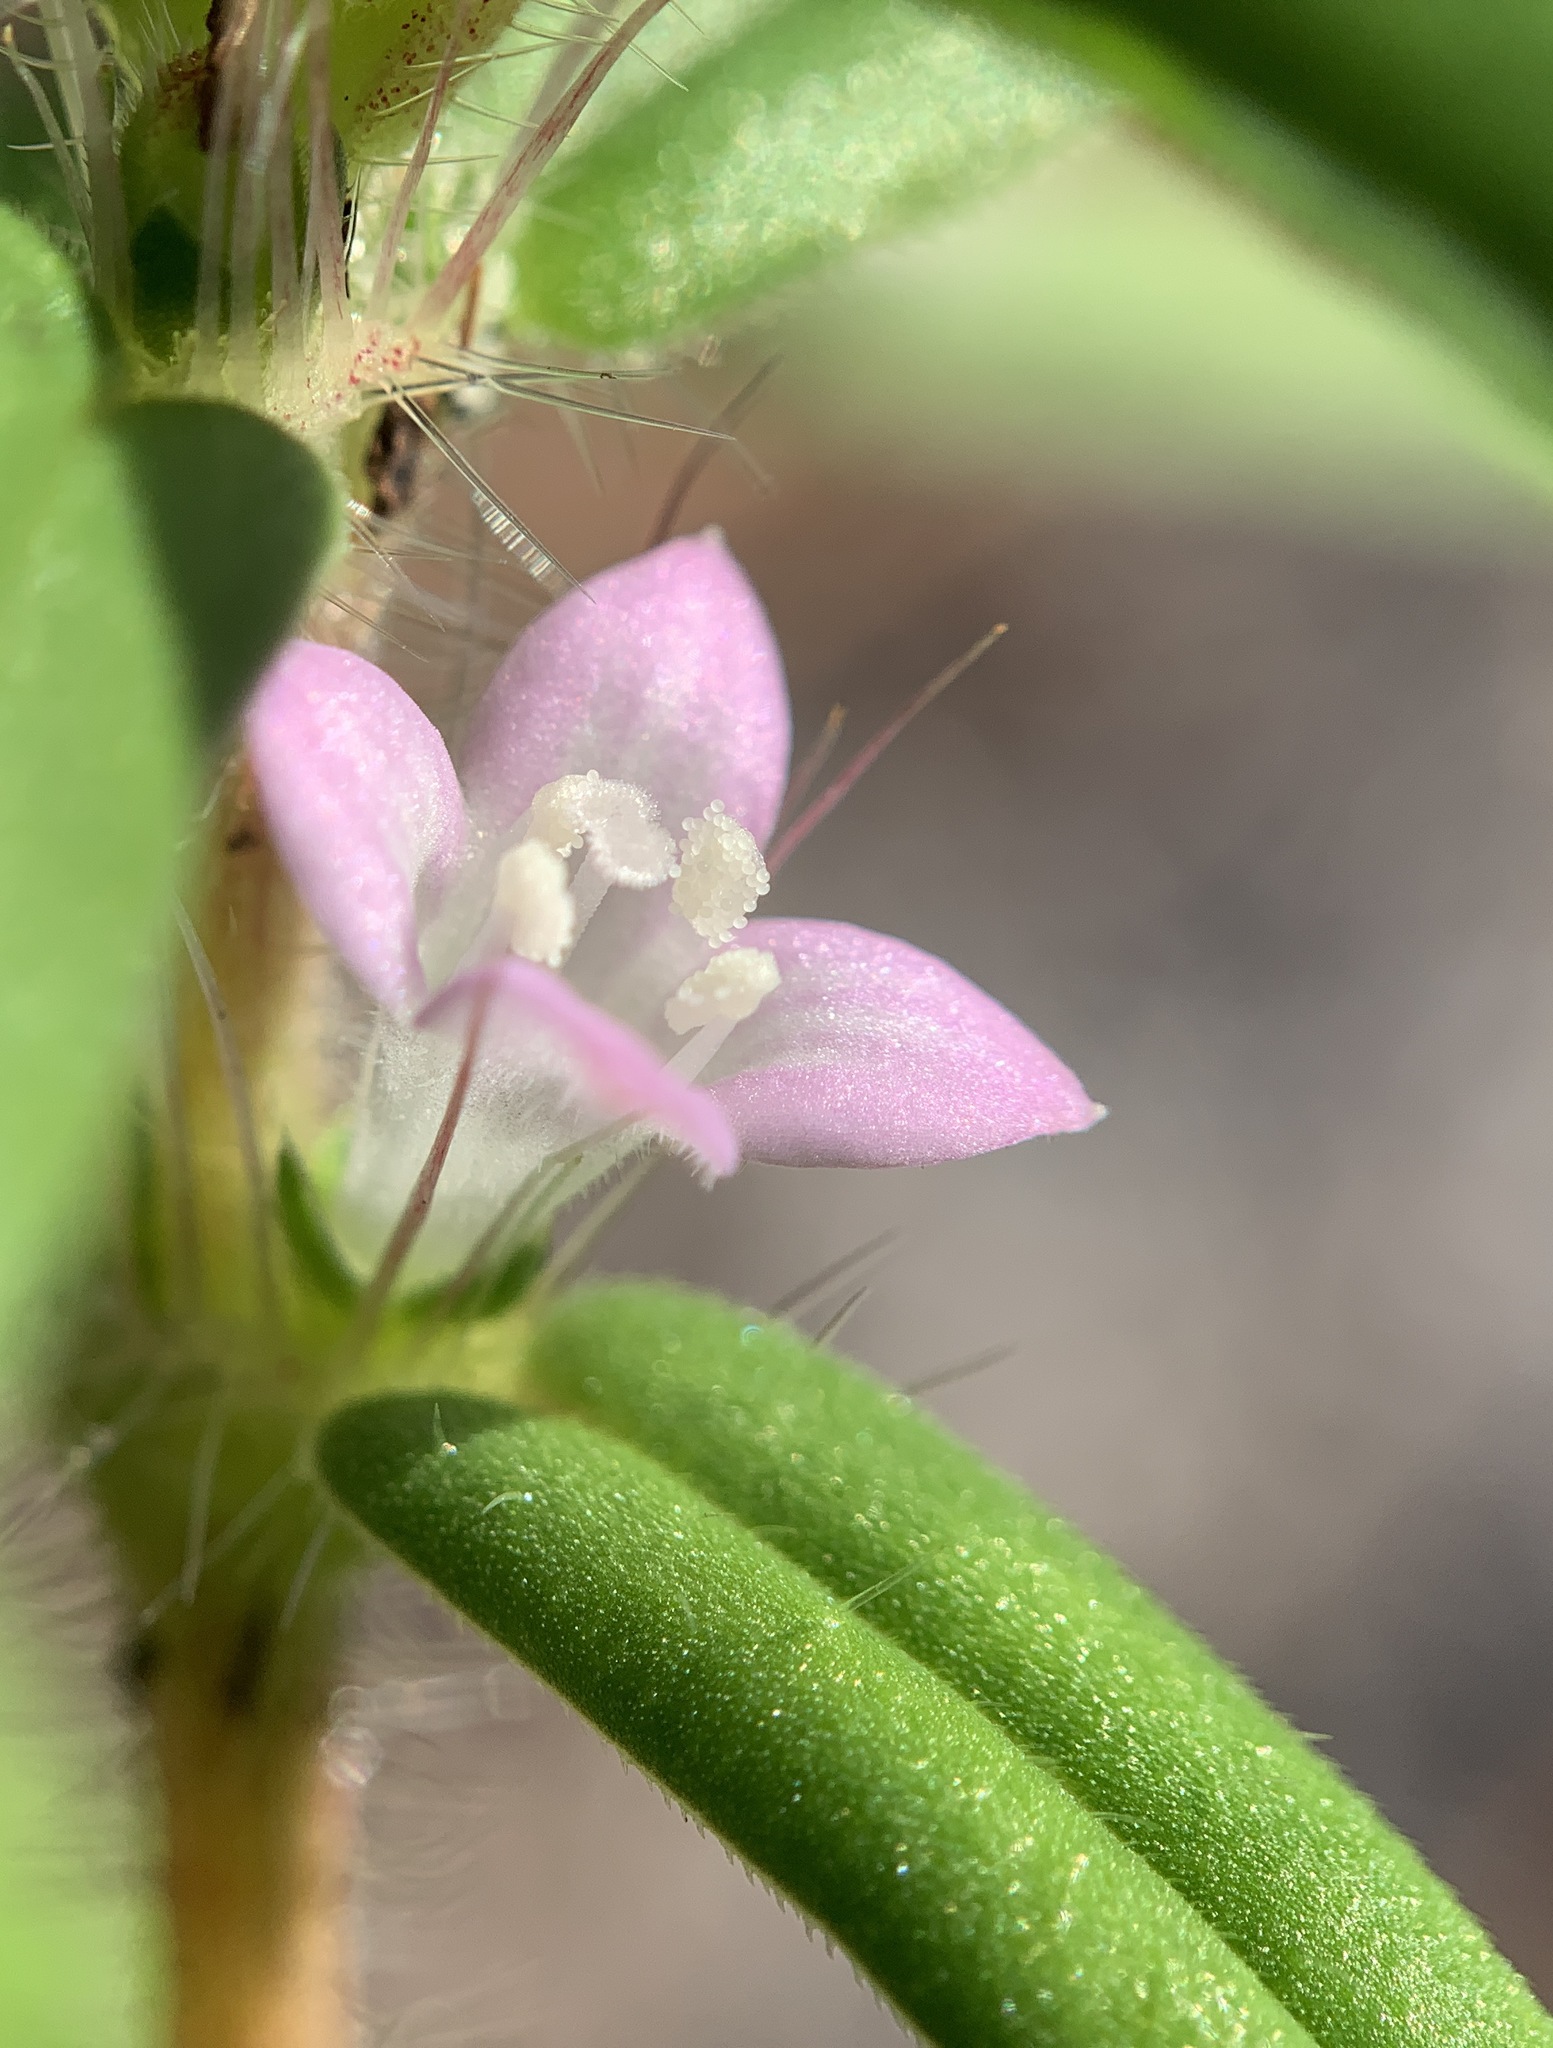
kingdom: Plantae
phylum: Tracheophyta
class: Magnoliopsida
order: Gentianales
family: Rubiaceae
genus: Hexasepalum
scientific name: Hexasepalum teres
